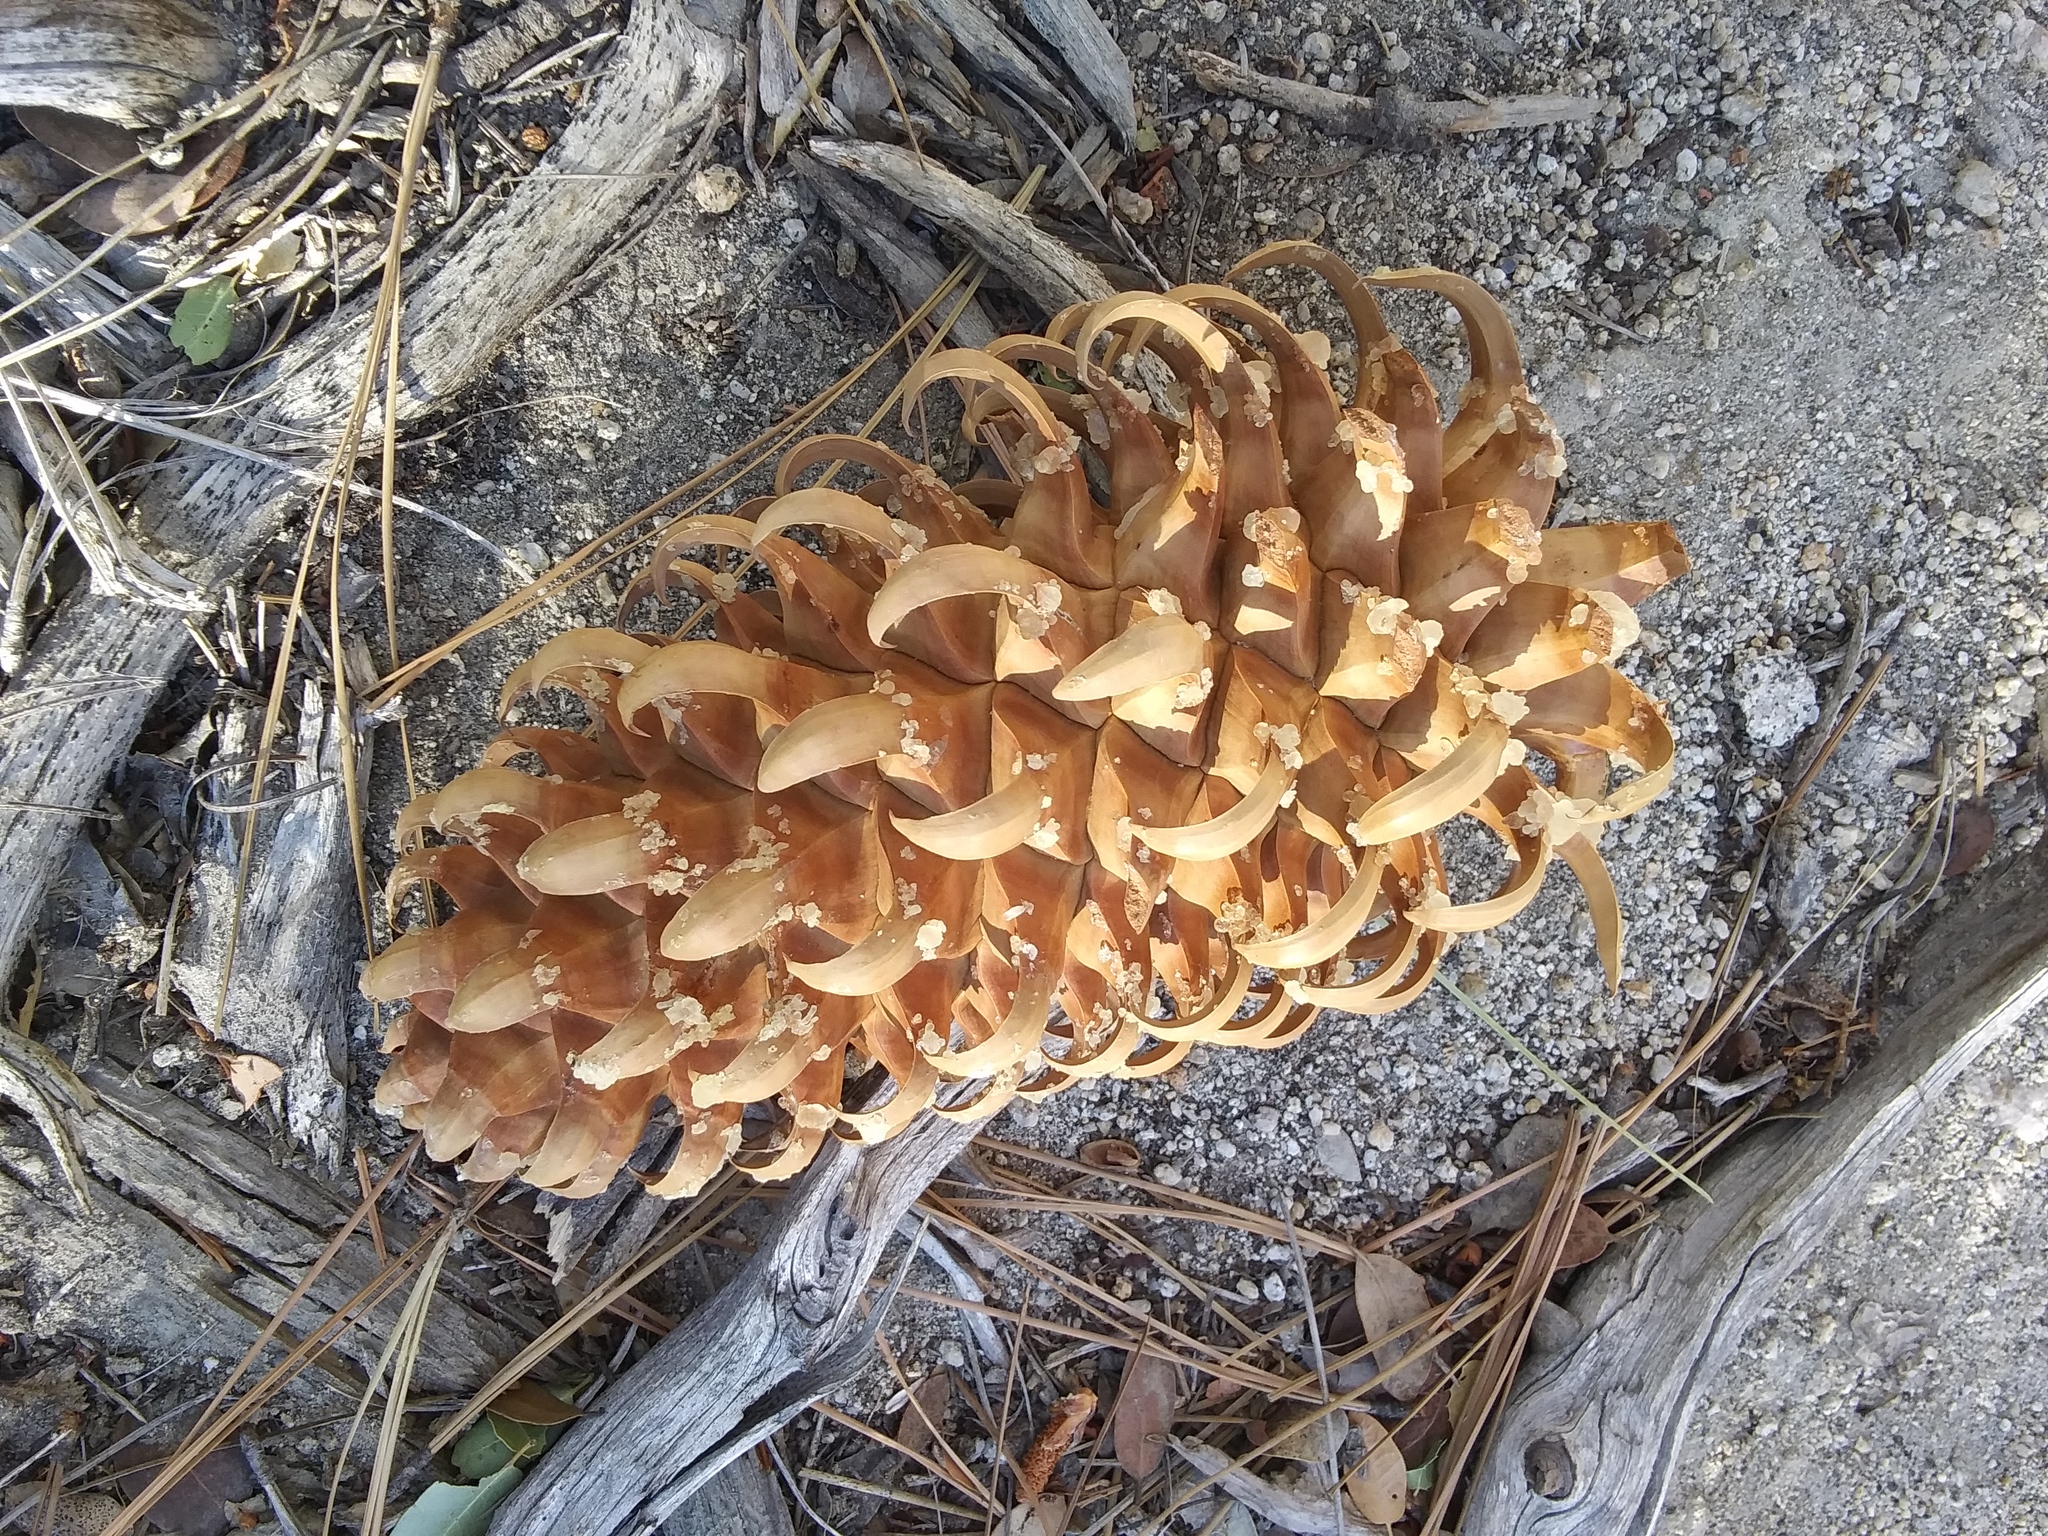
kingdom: Plantae
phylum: Tracheophyta
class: Pinopsida
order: Pinales
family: Pinaceae
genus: Pinus
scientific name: Pinus coulteri
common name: Coulter pine
